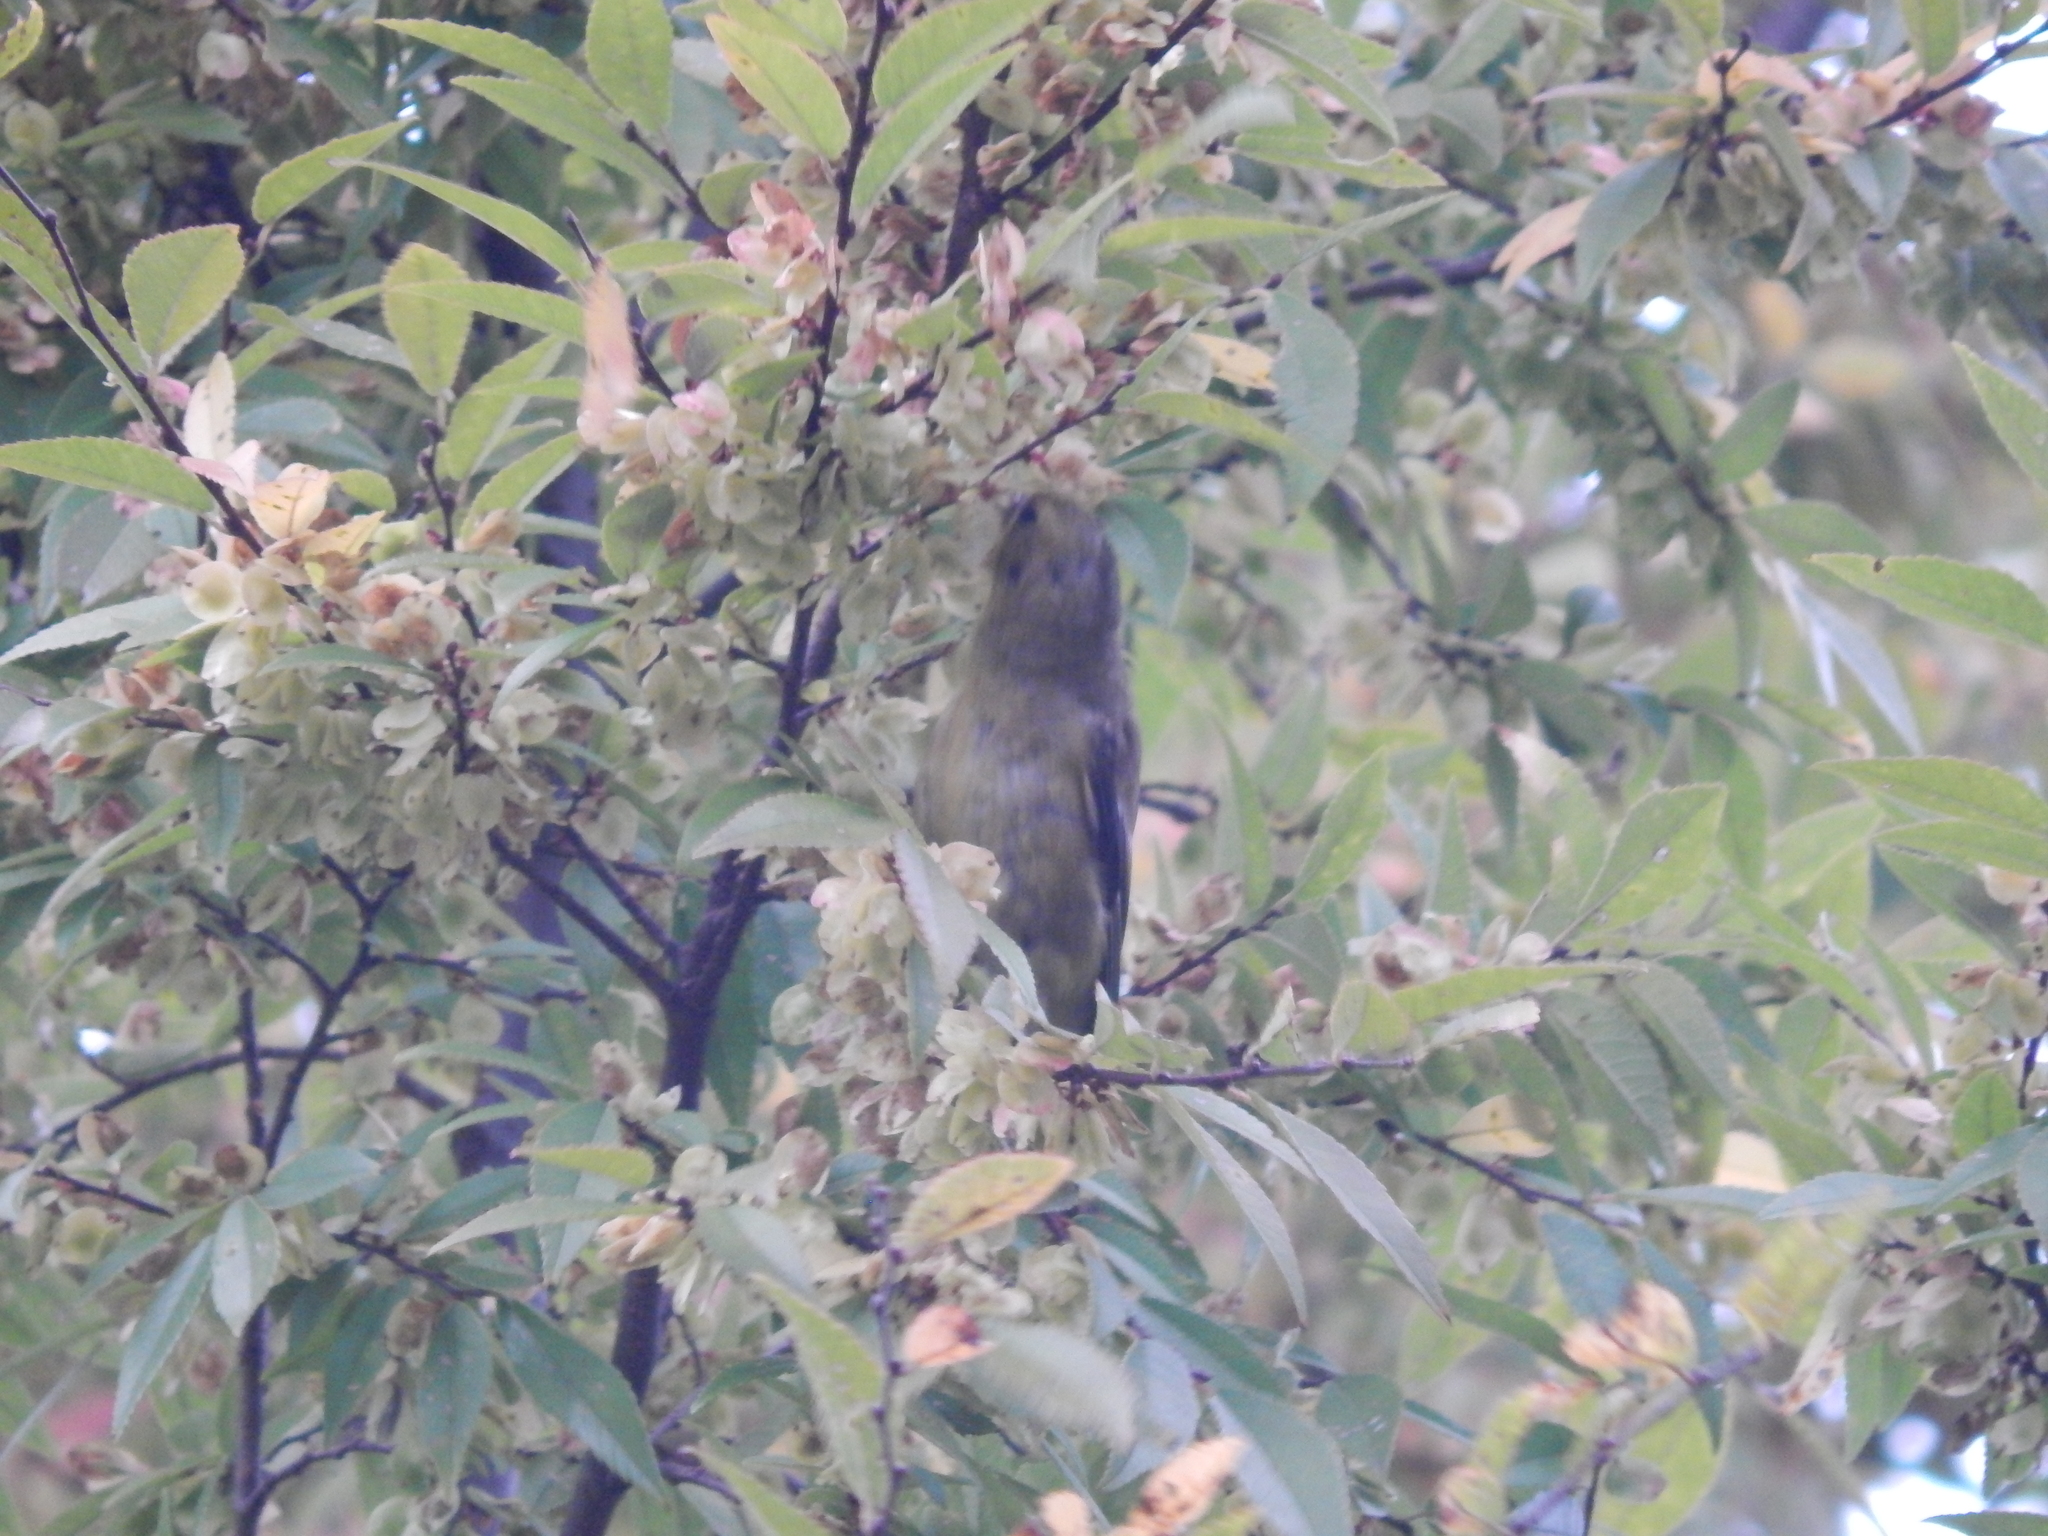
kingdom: Animalia
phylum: Chordata
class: Aves
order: Passeriformes
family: Fringillidae
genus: Spinus
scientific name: Spinus tristis
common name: American goldfinch
